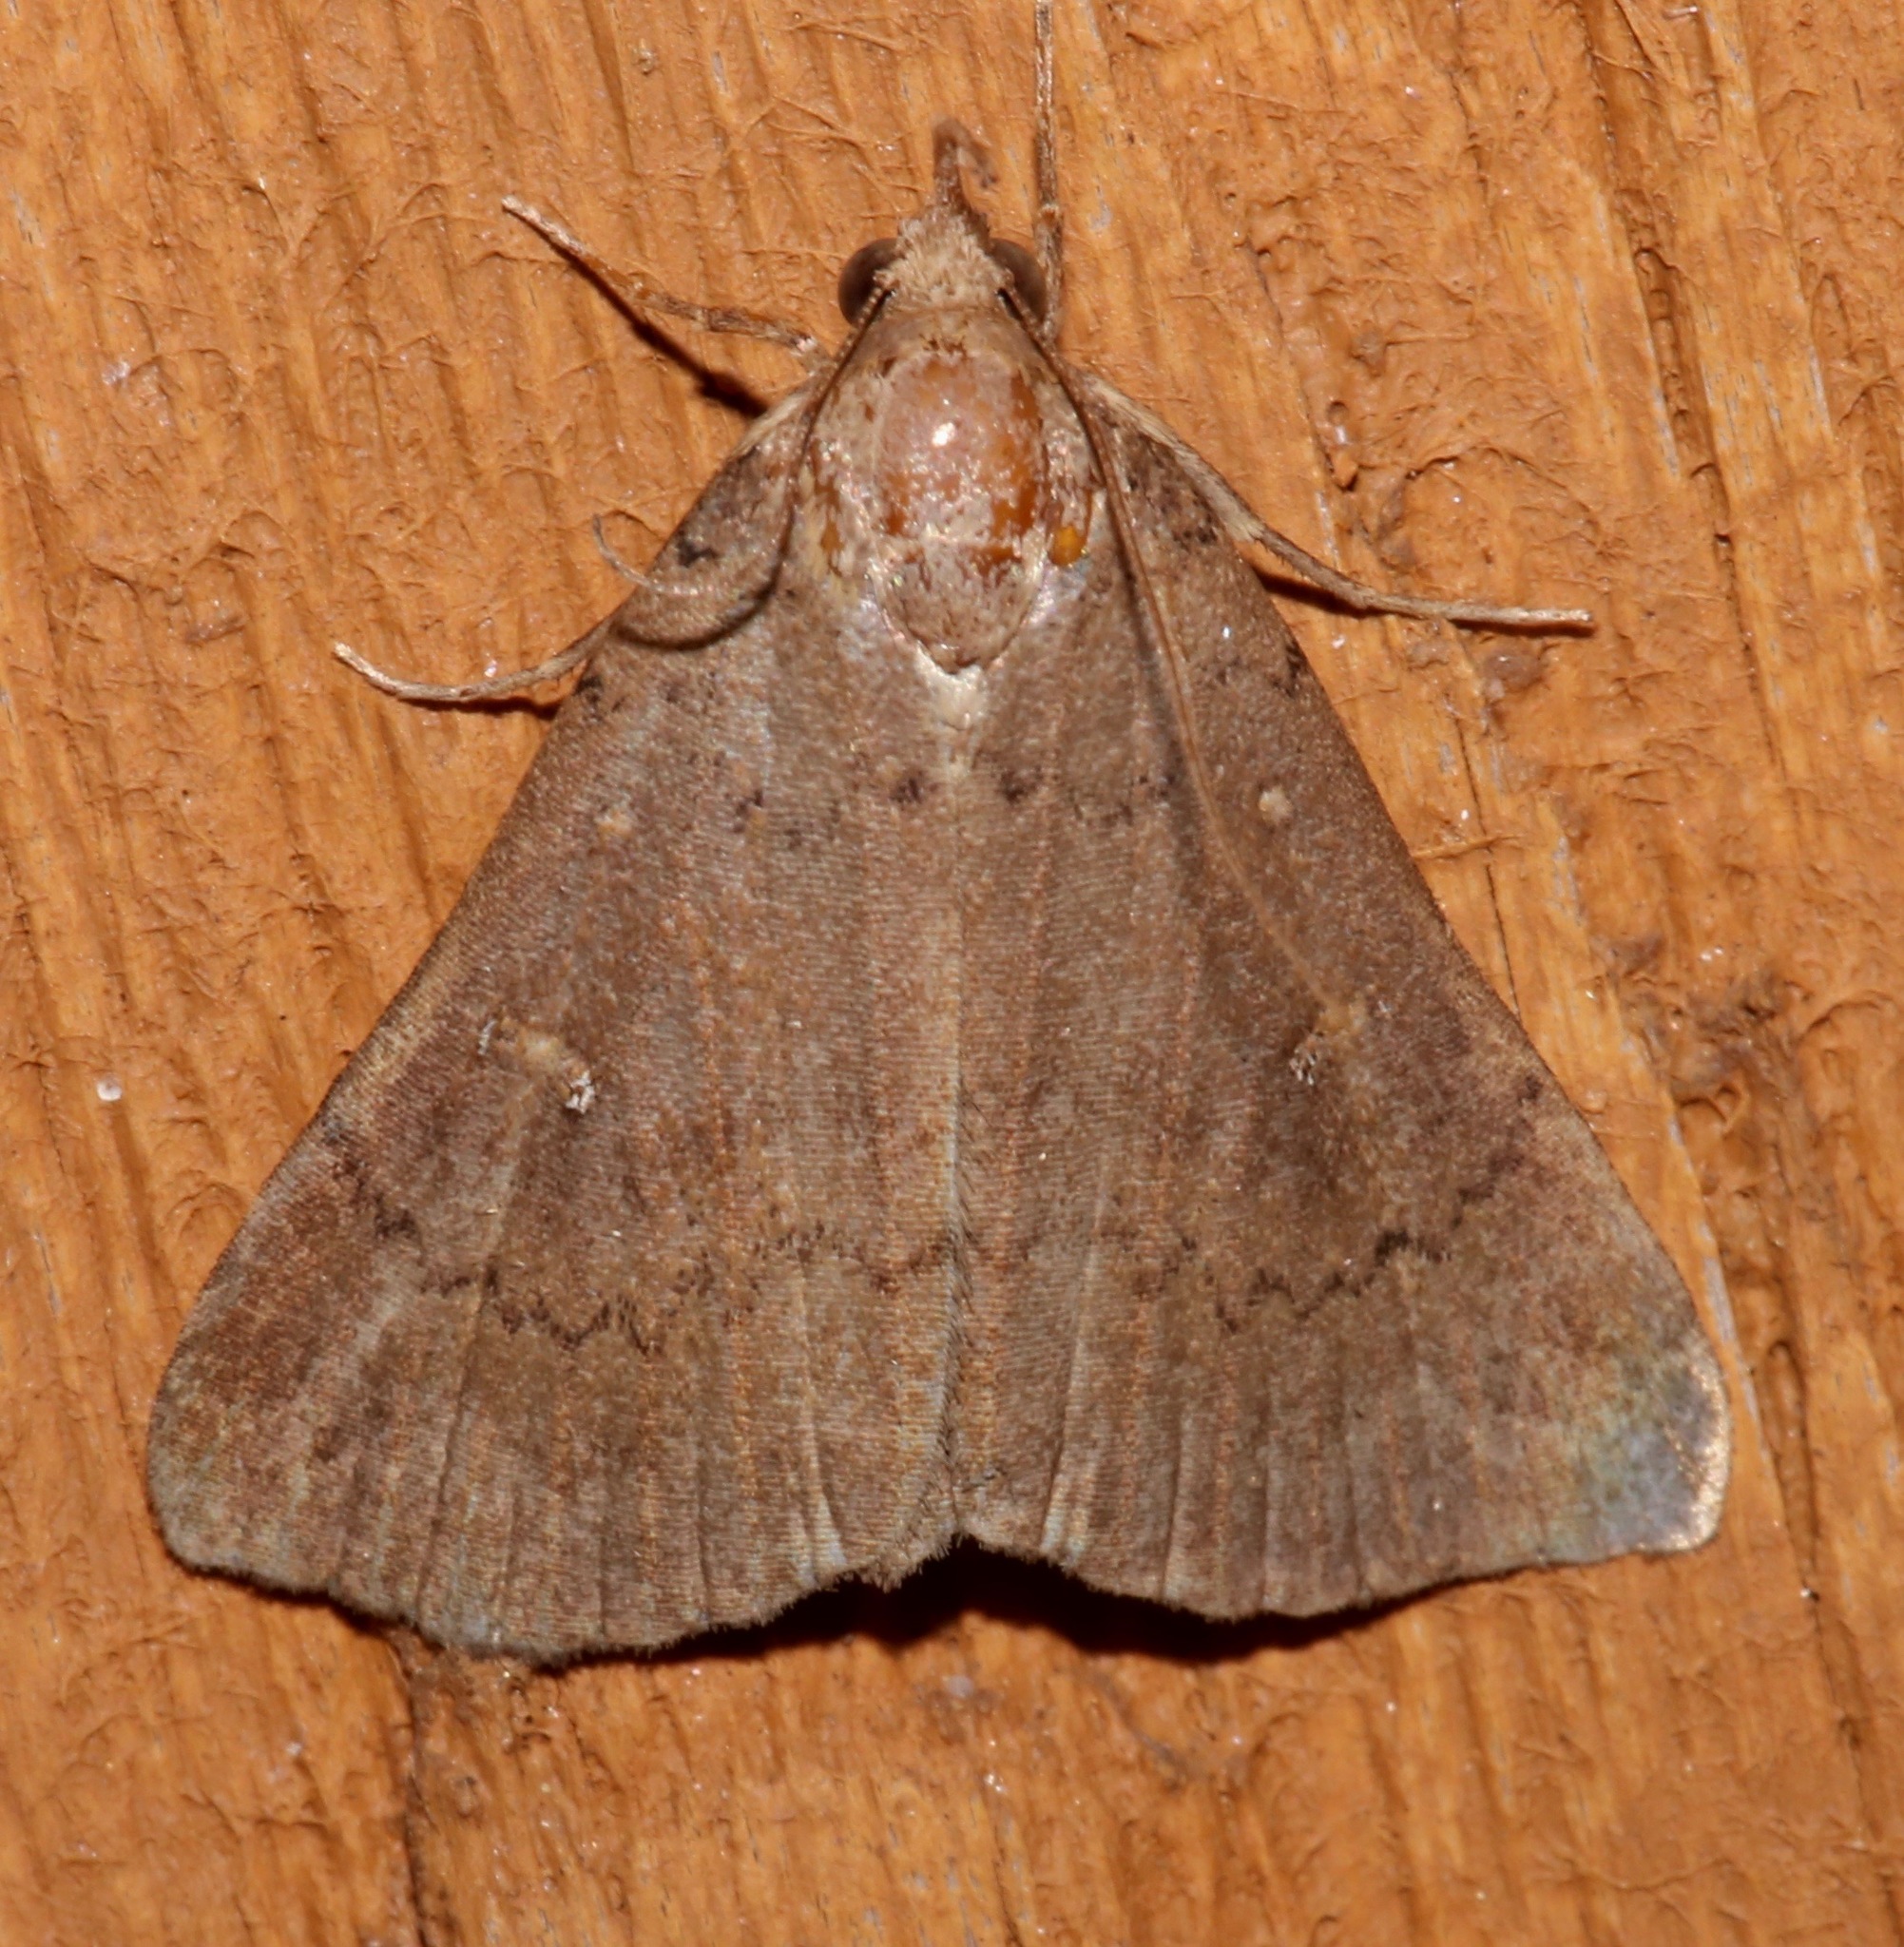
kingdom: Animalia
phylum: Arthropoda
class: Insecta
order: Lepidoptera
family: Erebidae
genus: Hypenula
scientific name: Hypenula cacuminalis
